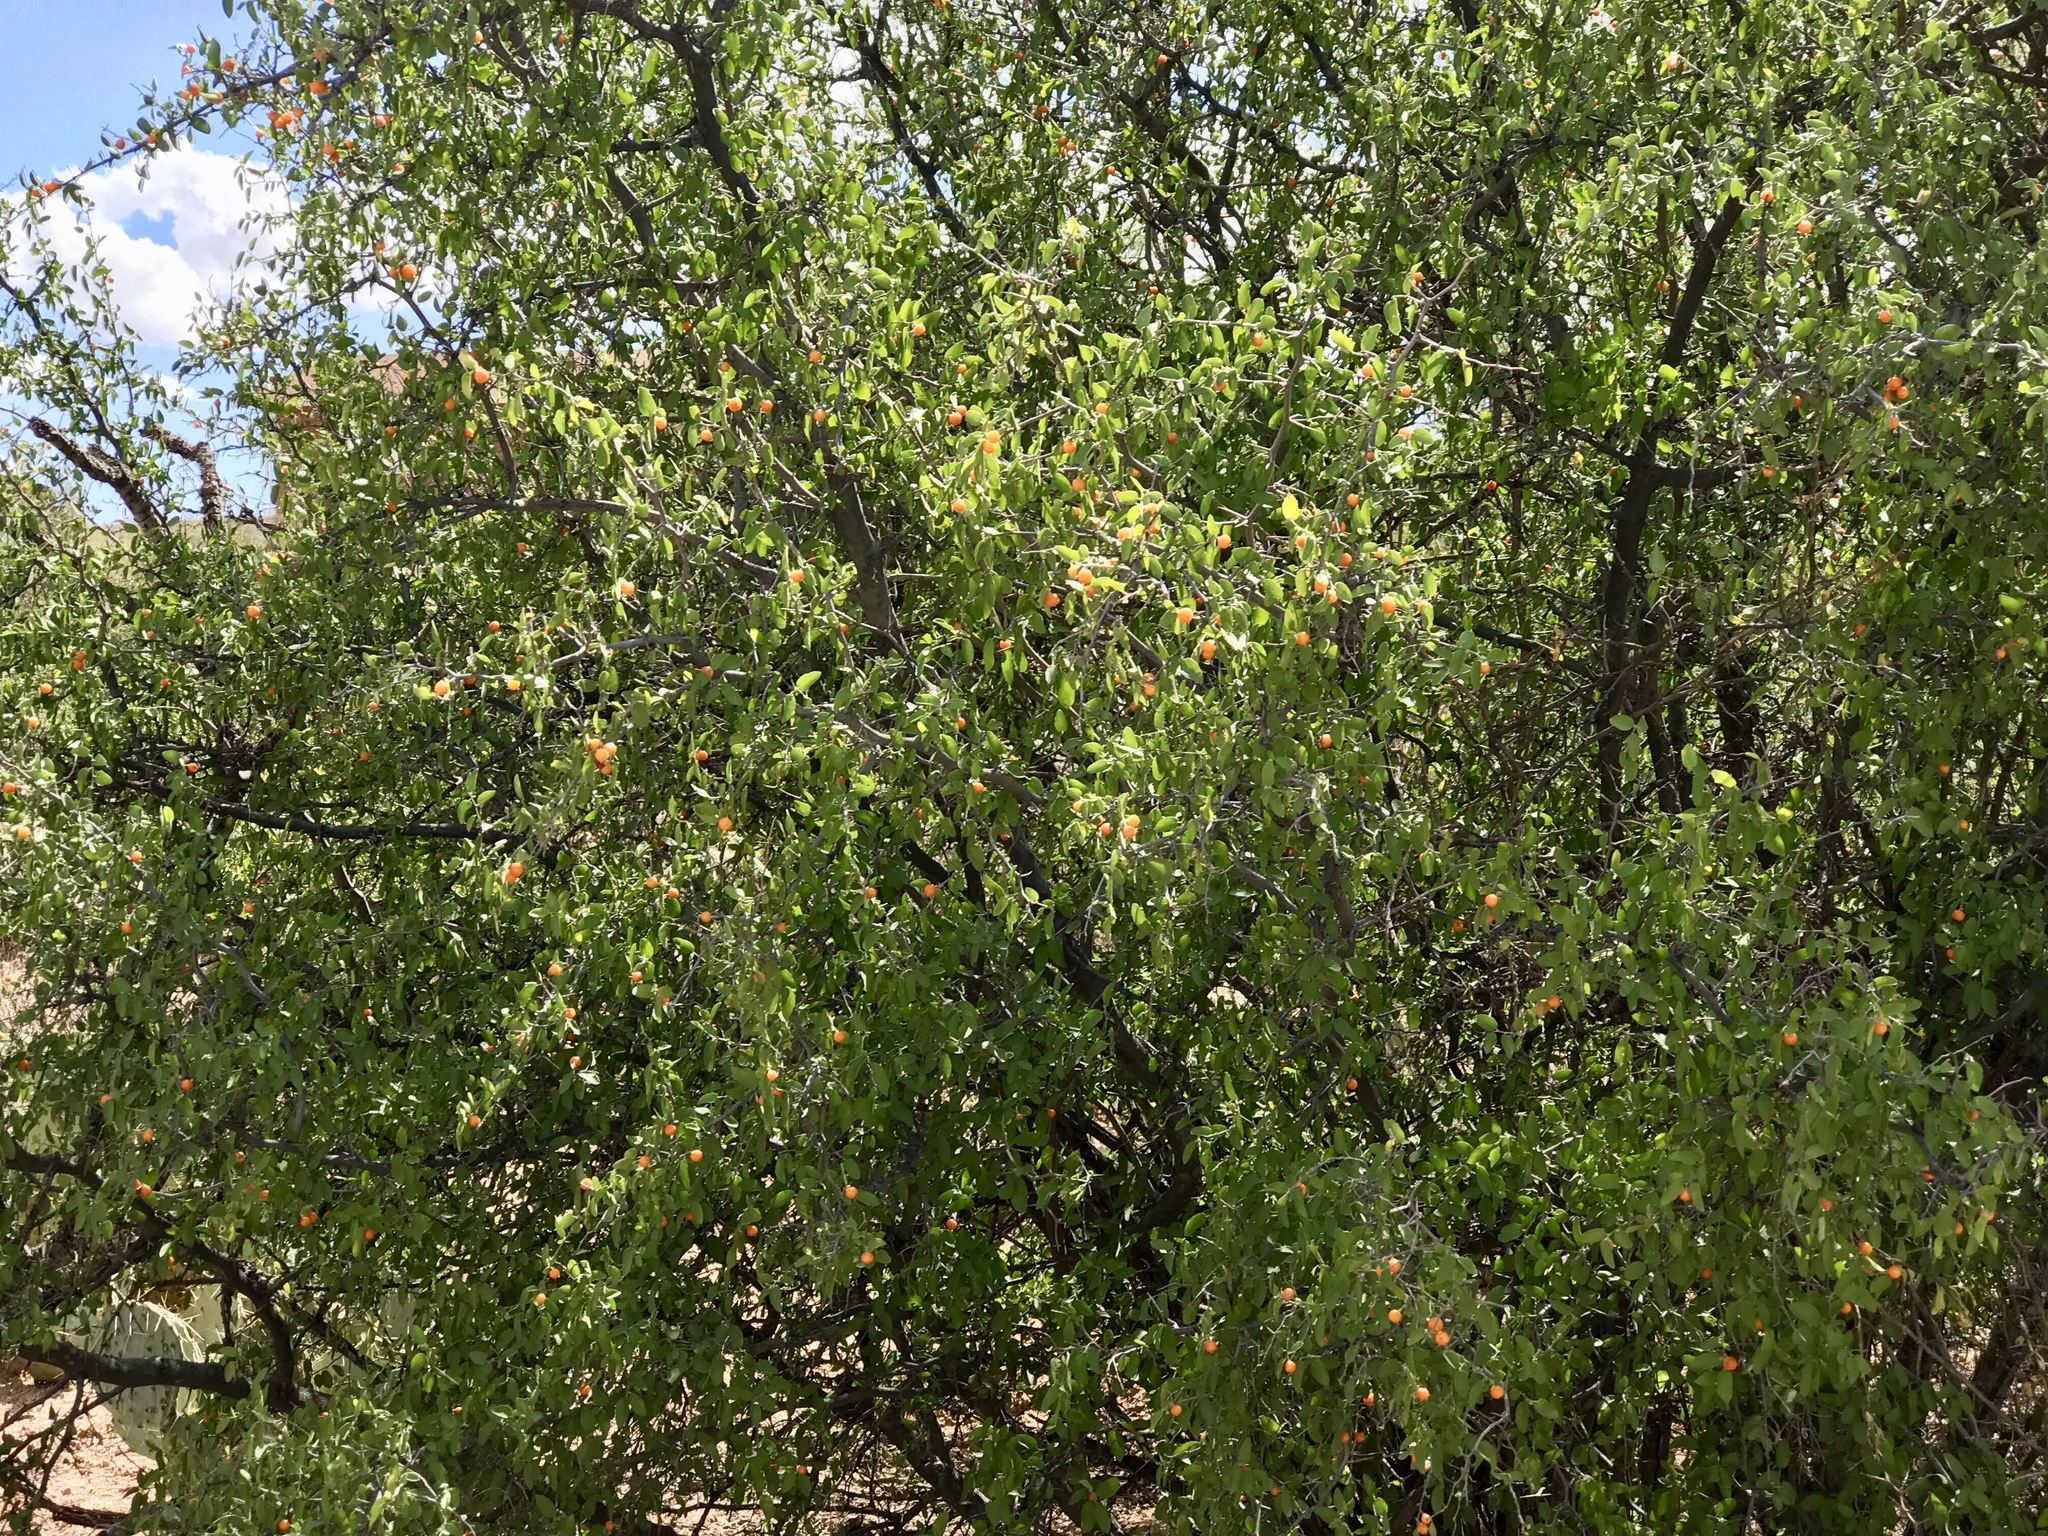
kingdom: Plantae
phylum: Tracheophyta
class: Magnoliopsida
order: Rosales
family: Cannabaceae
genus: Celtis
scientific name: Celtis pallida
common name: Desert hackberry
